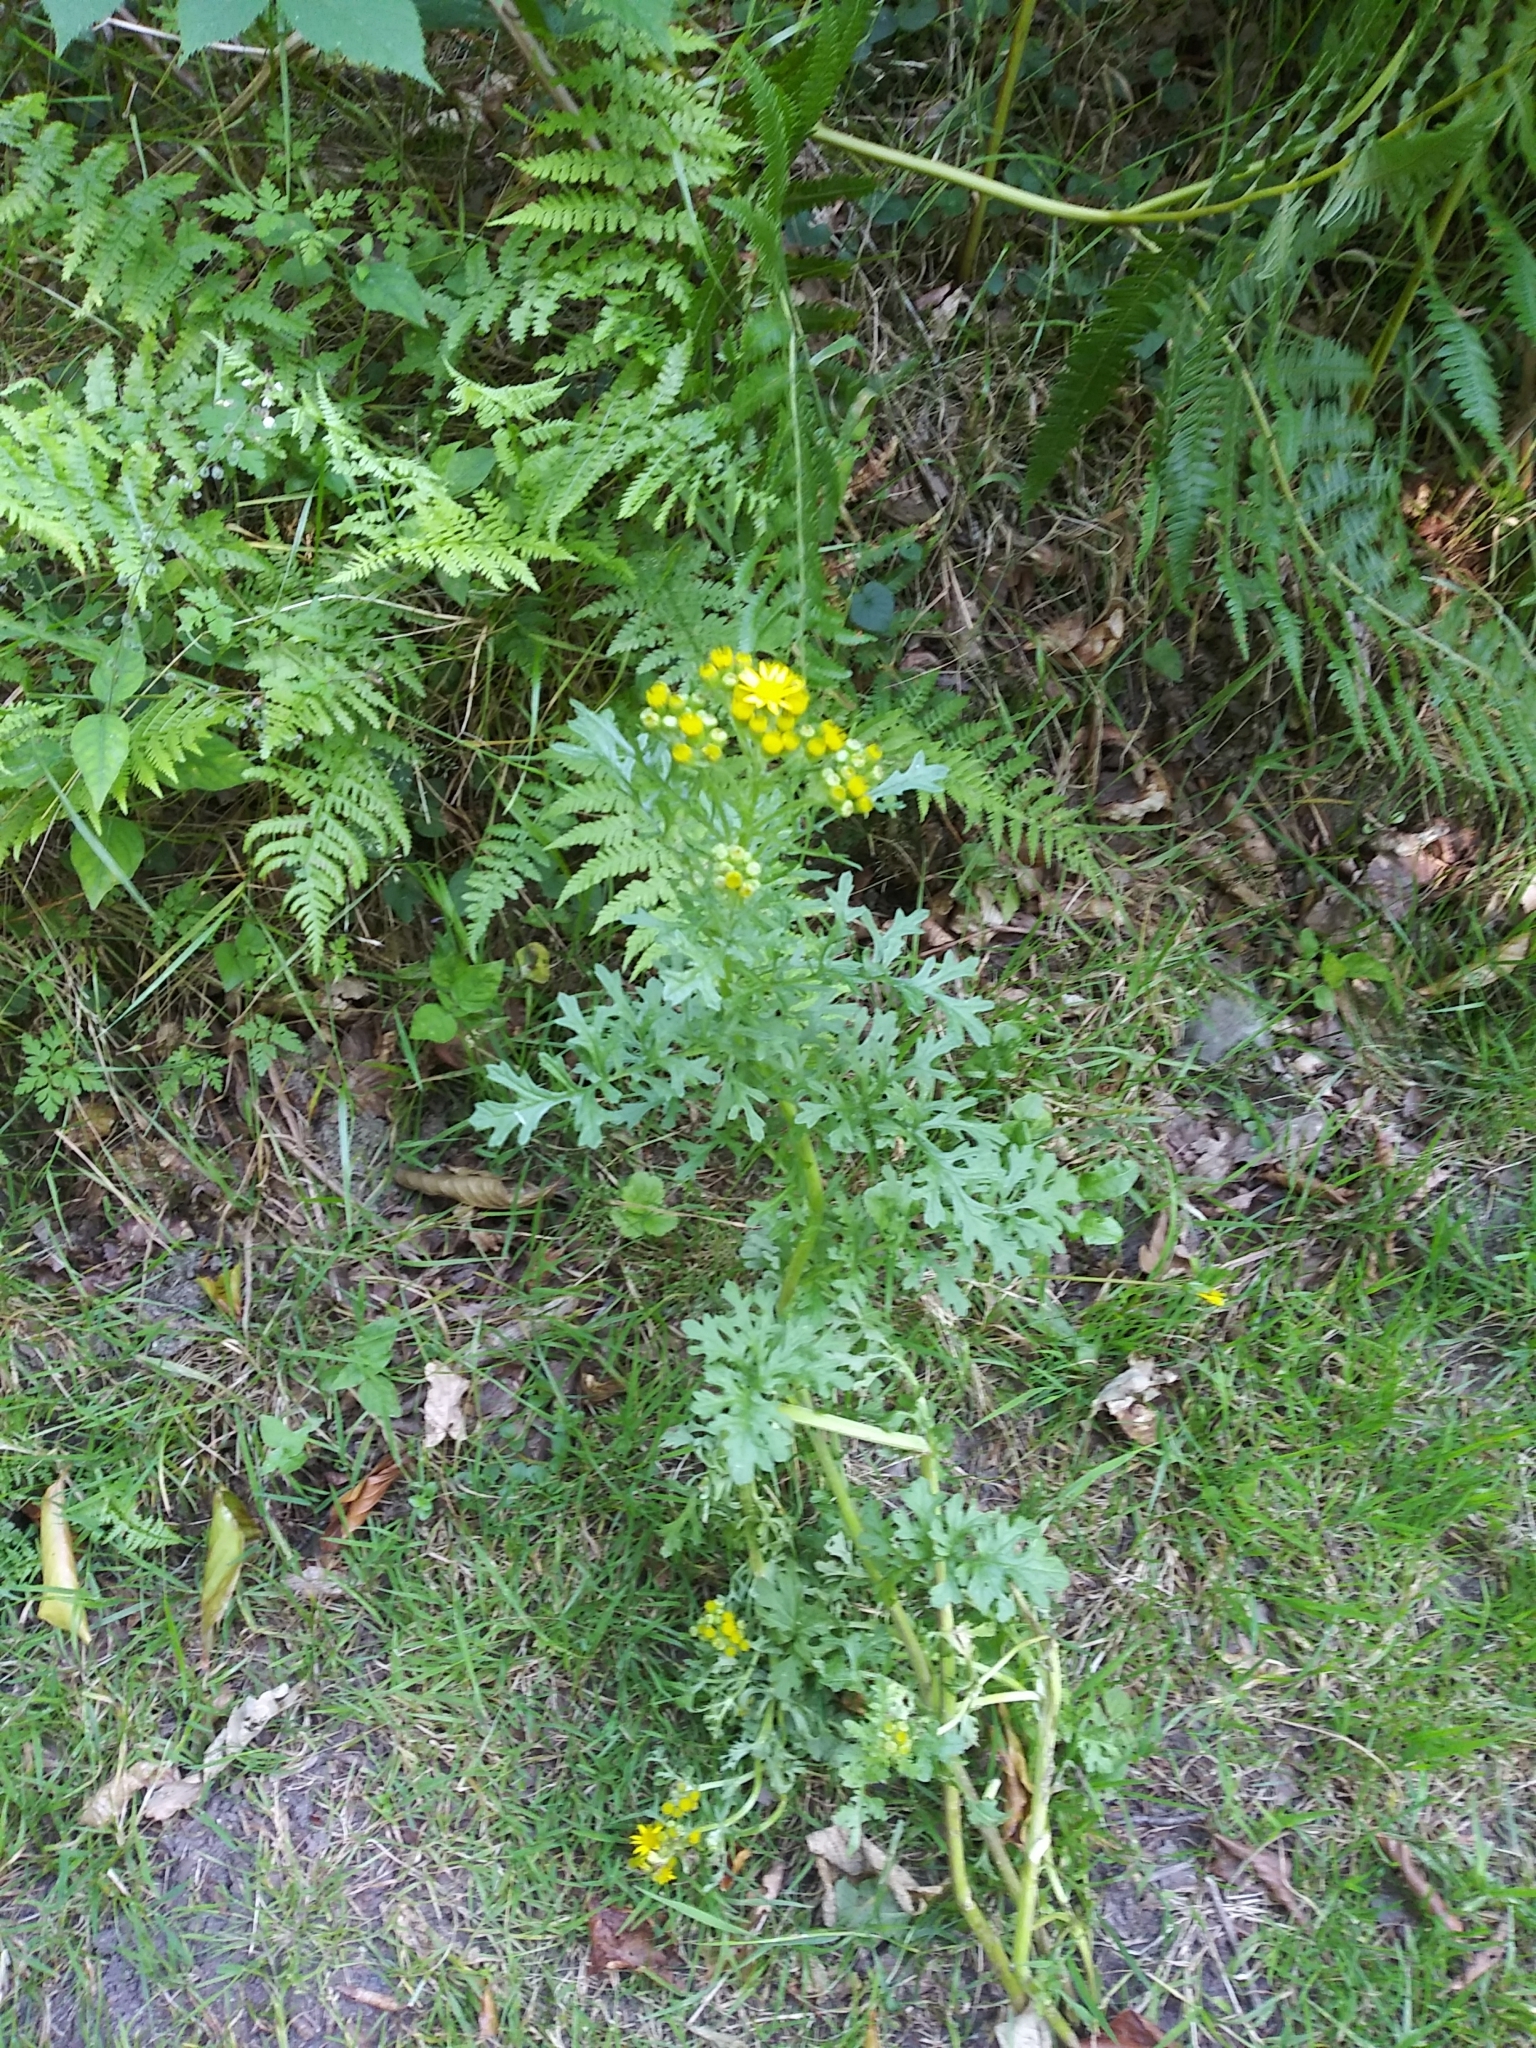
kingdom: Plantae
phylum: Tracheophyta
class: Magnoliopsida
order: Asterales
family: Asteraceae
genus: Jacobaea
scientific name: Jacobaea vulgaris
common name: Stinking willie
